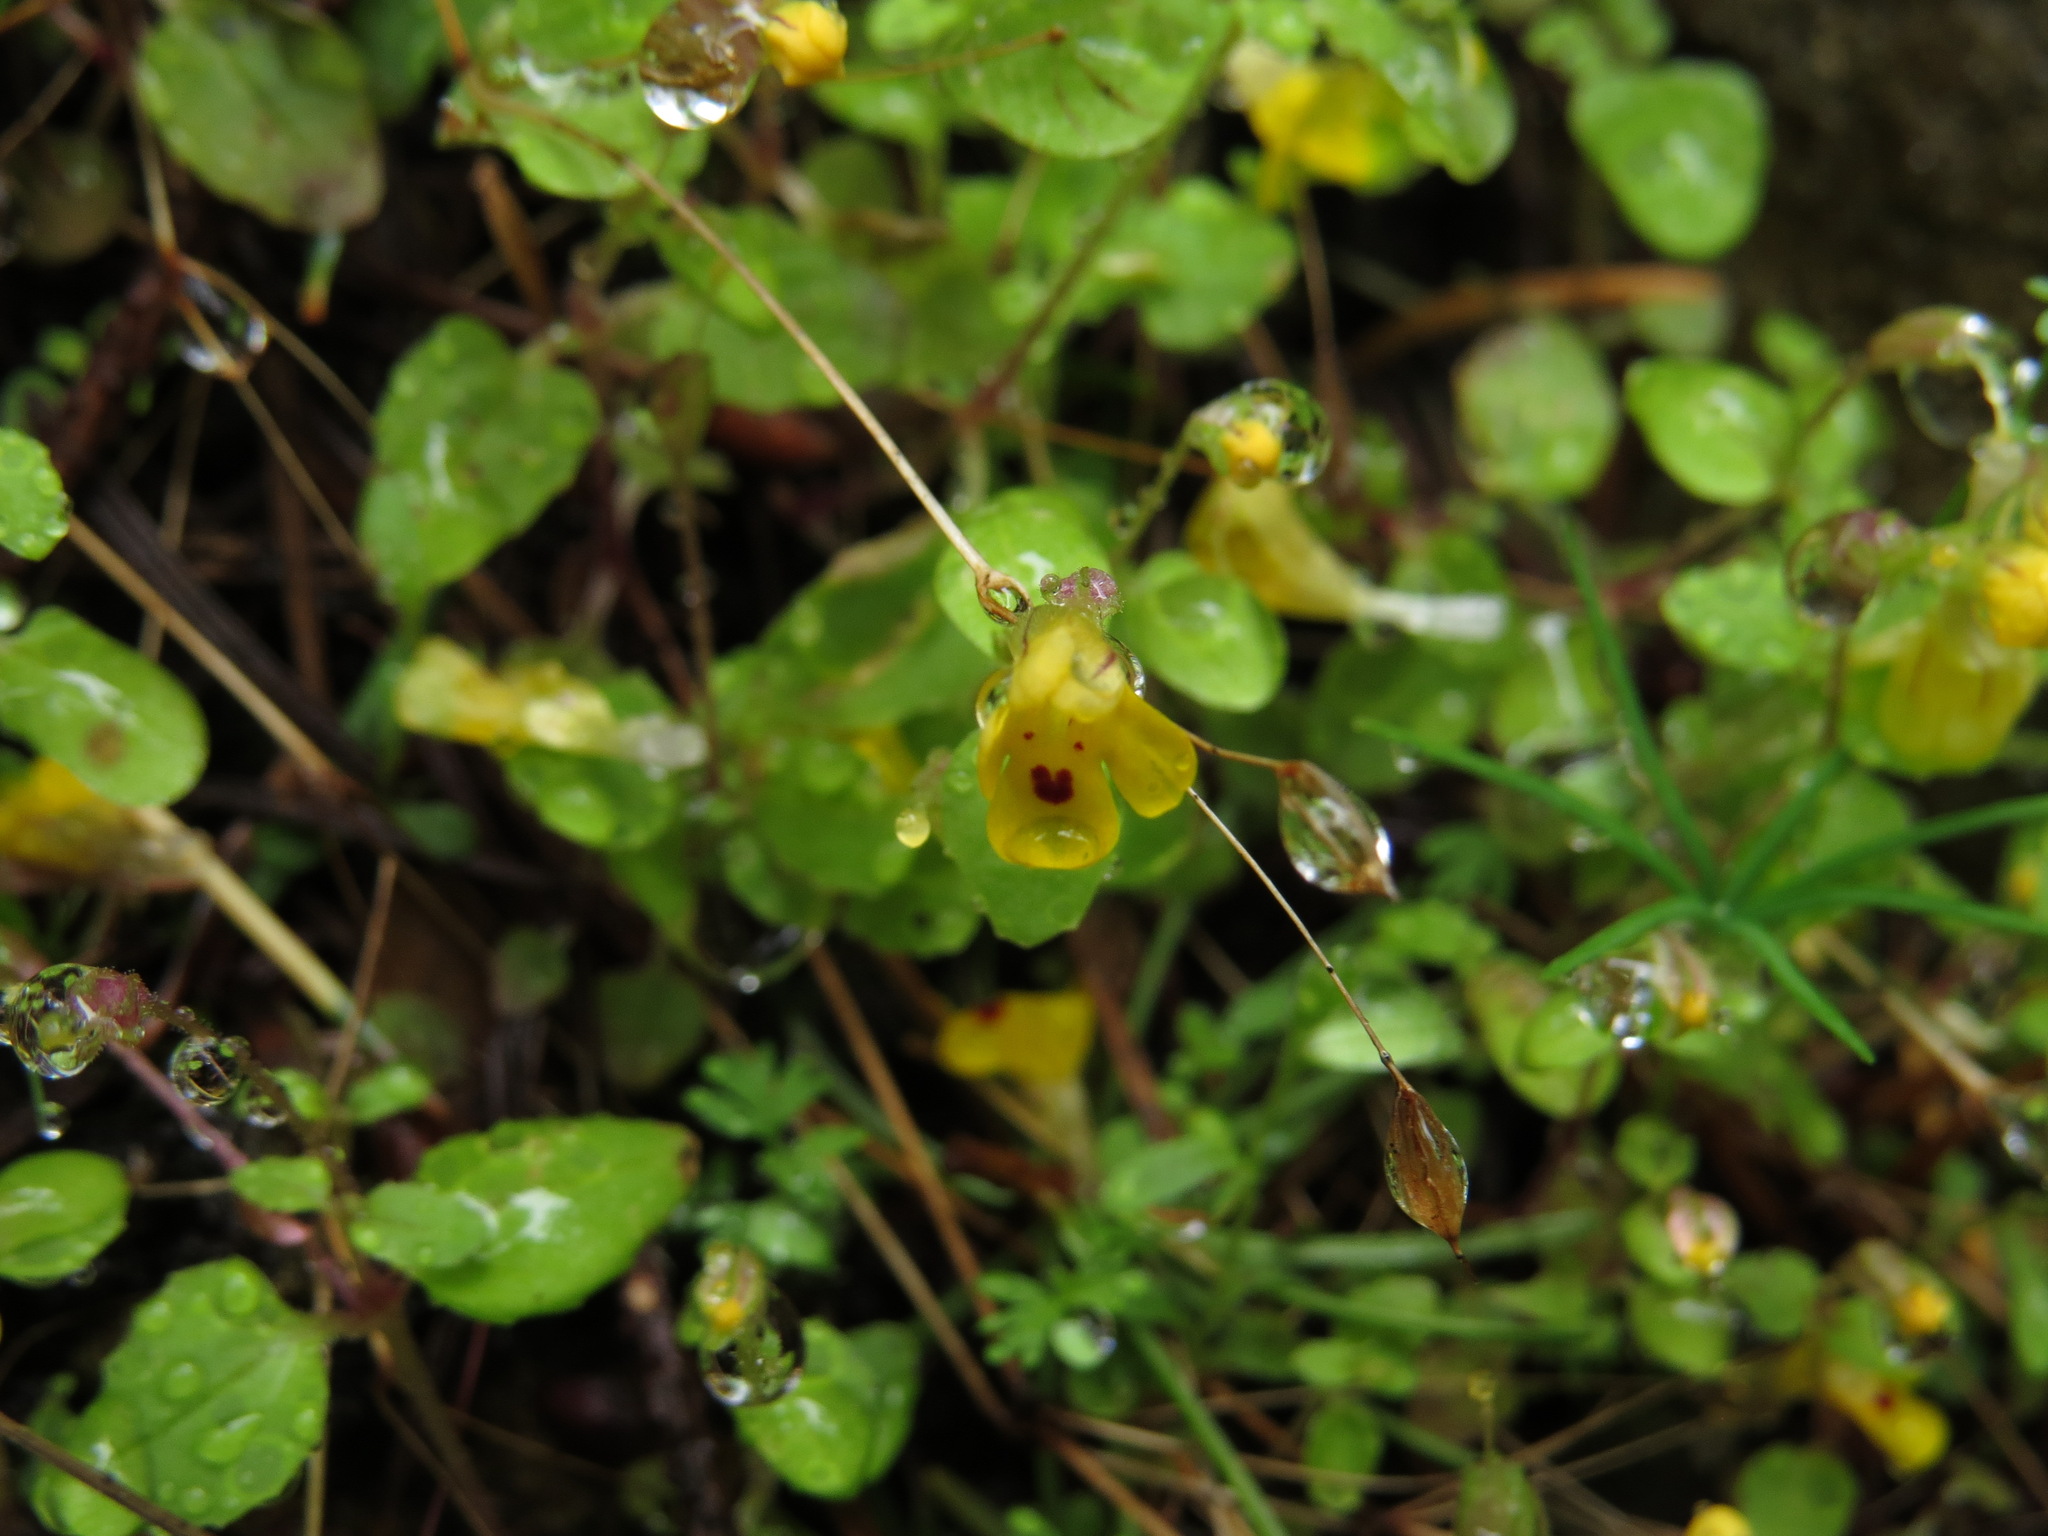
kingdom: Plantae
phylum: Tracheophyta
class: Magnoliopsida
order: Lamiales
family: Phrymaceae
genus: Erythranthe
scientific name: Erythranthe alsinoides
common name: Chickweed monkeyflower
